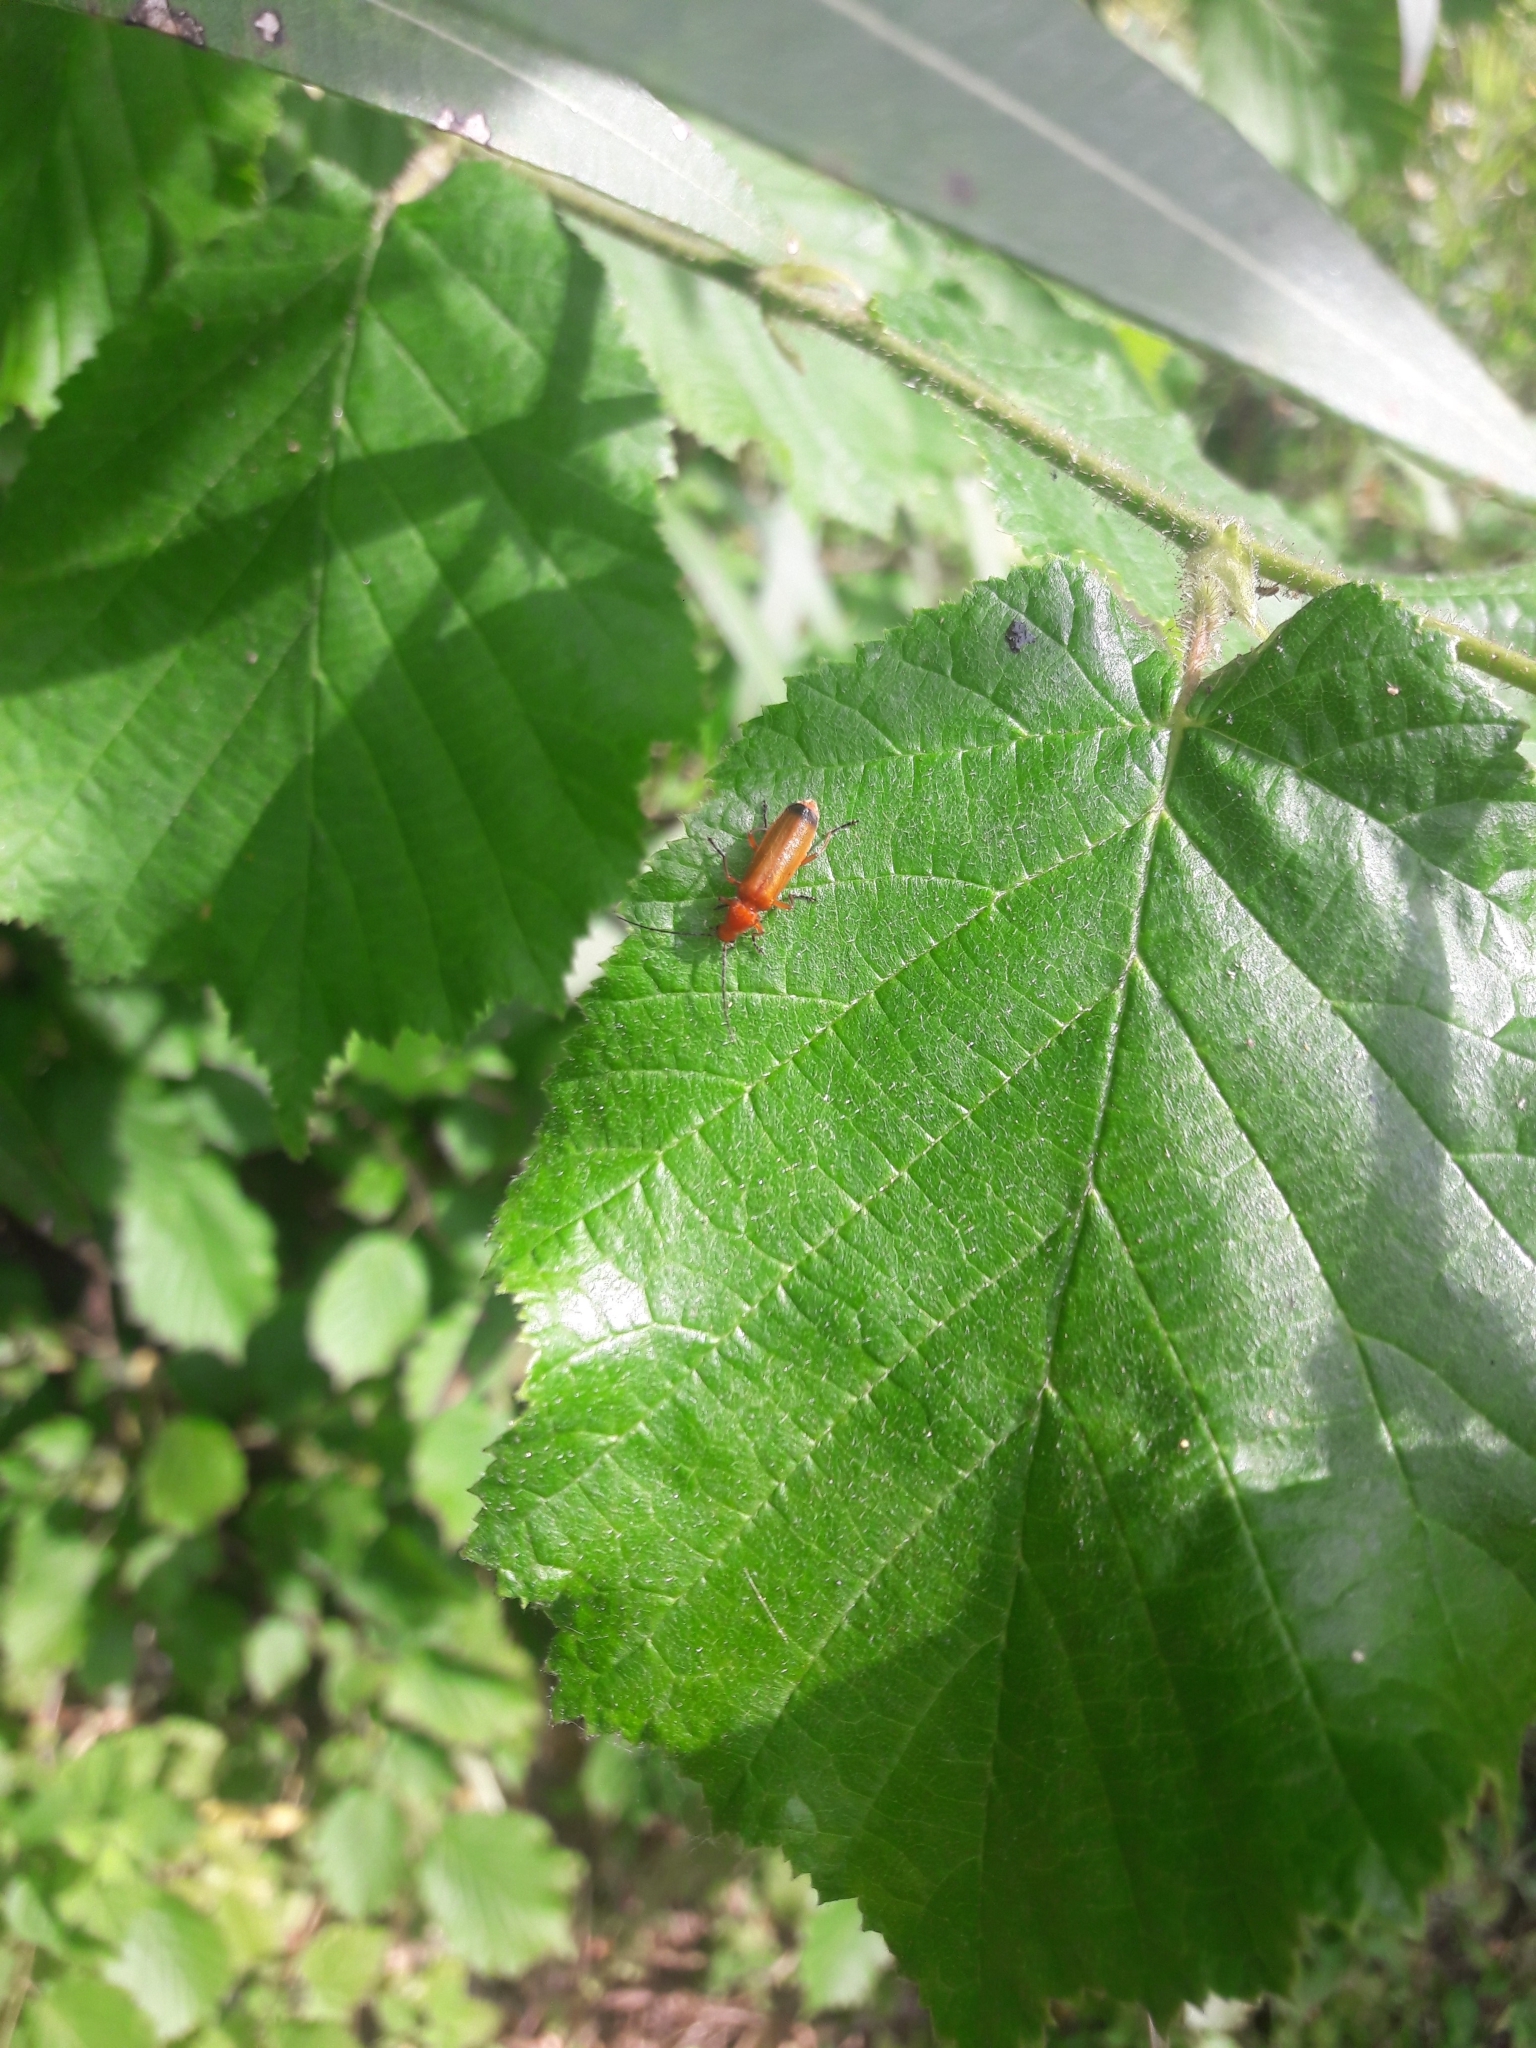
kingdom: Animalia
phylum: Arthropoda
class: Insecta
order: Coleoptera
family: Cantharidae
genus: Rhagonycha
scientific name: Rhagonycha fulva
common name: Common red soldier beetle
